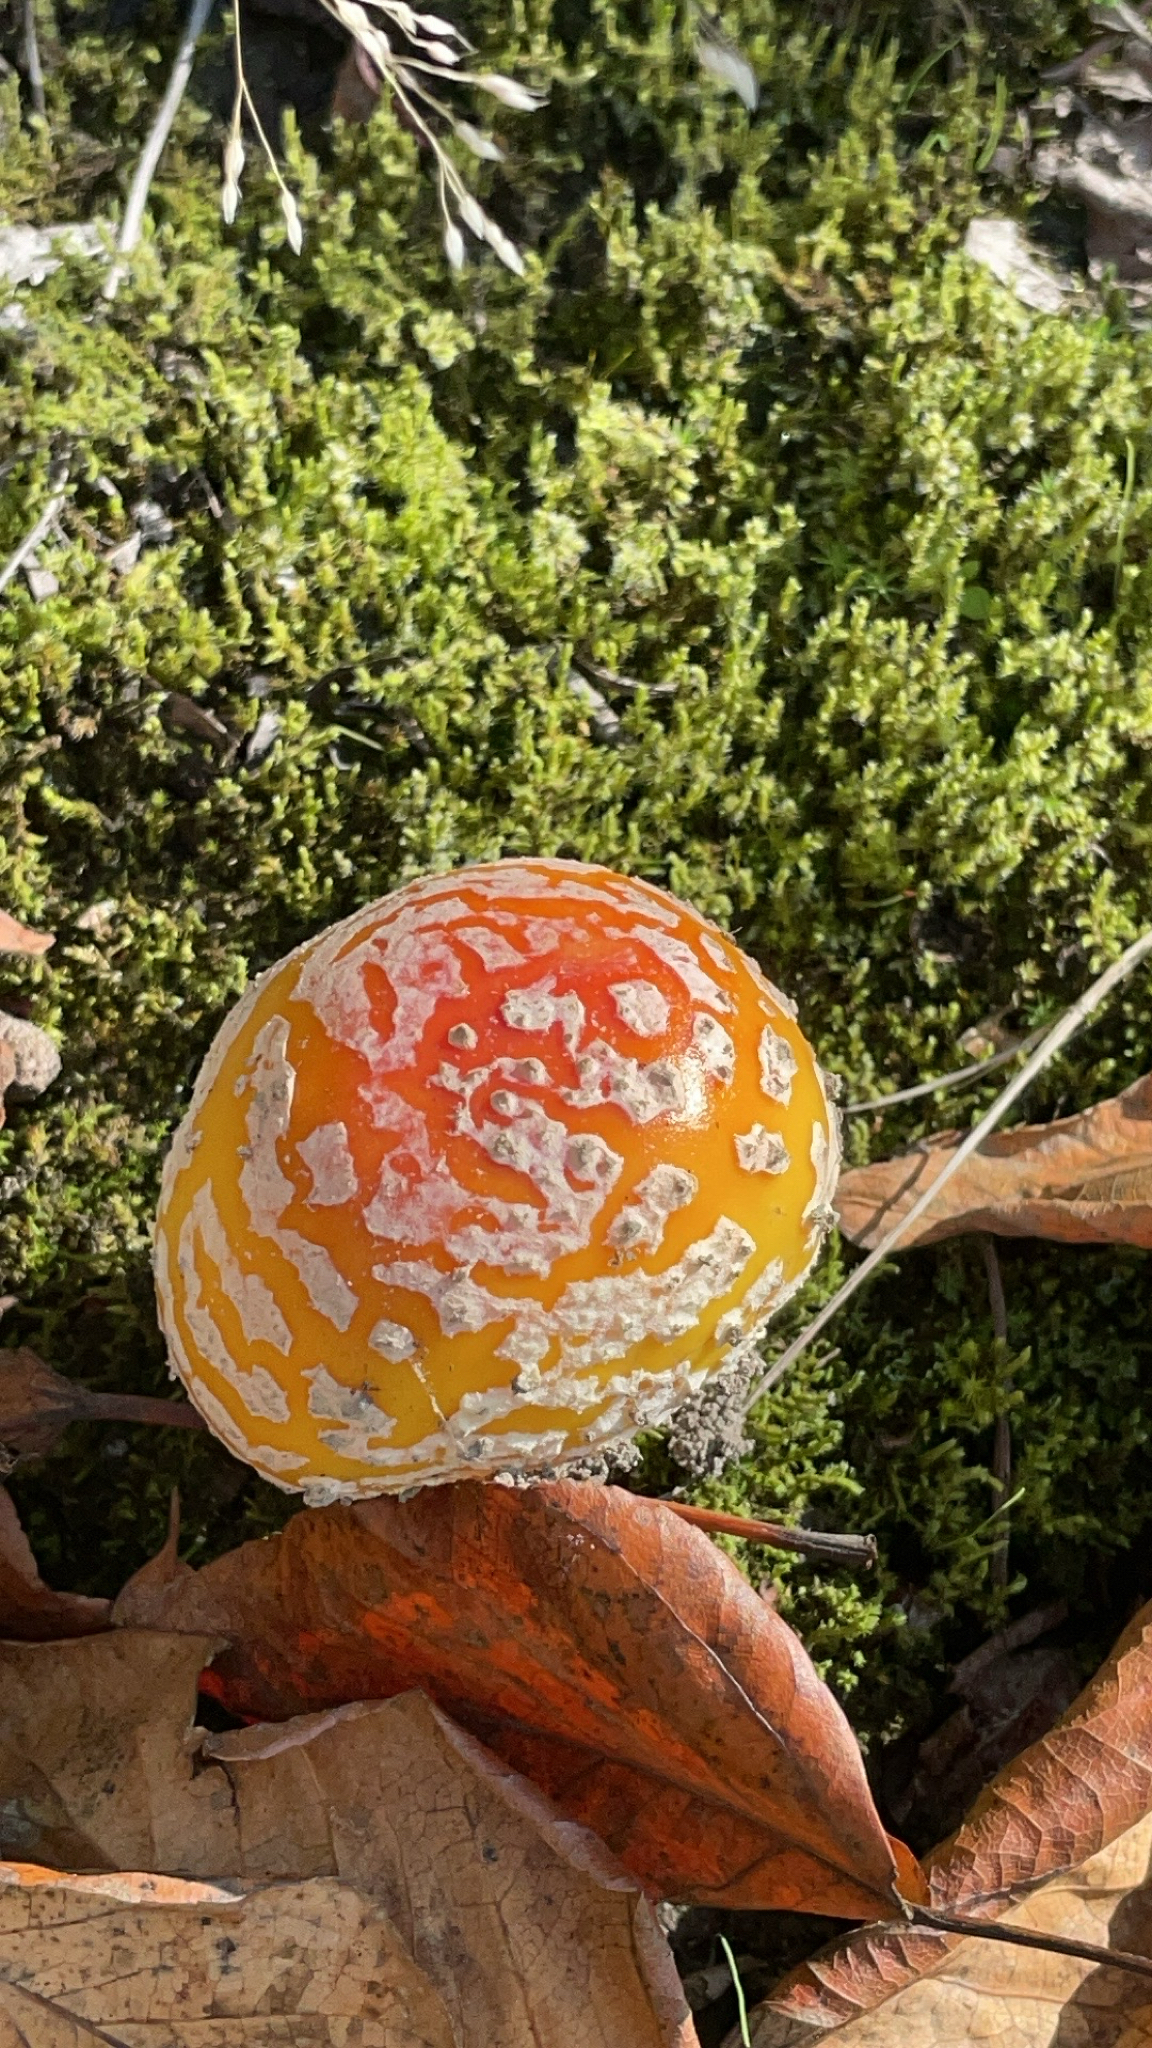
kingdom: Fungi
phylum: Basidiomycota
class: Agaricomycetes
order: Agaricales
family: Amanitaceae
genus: Amanita
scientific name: Amanita muscaria
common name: Fly agaric
